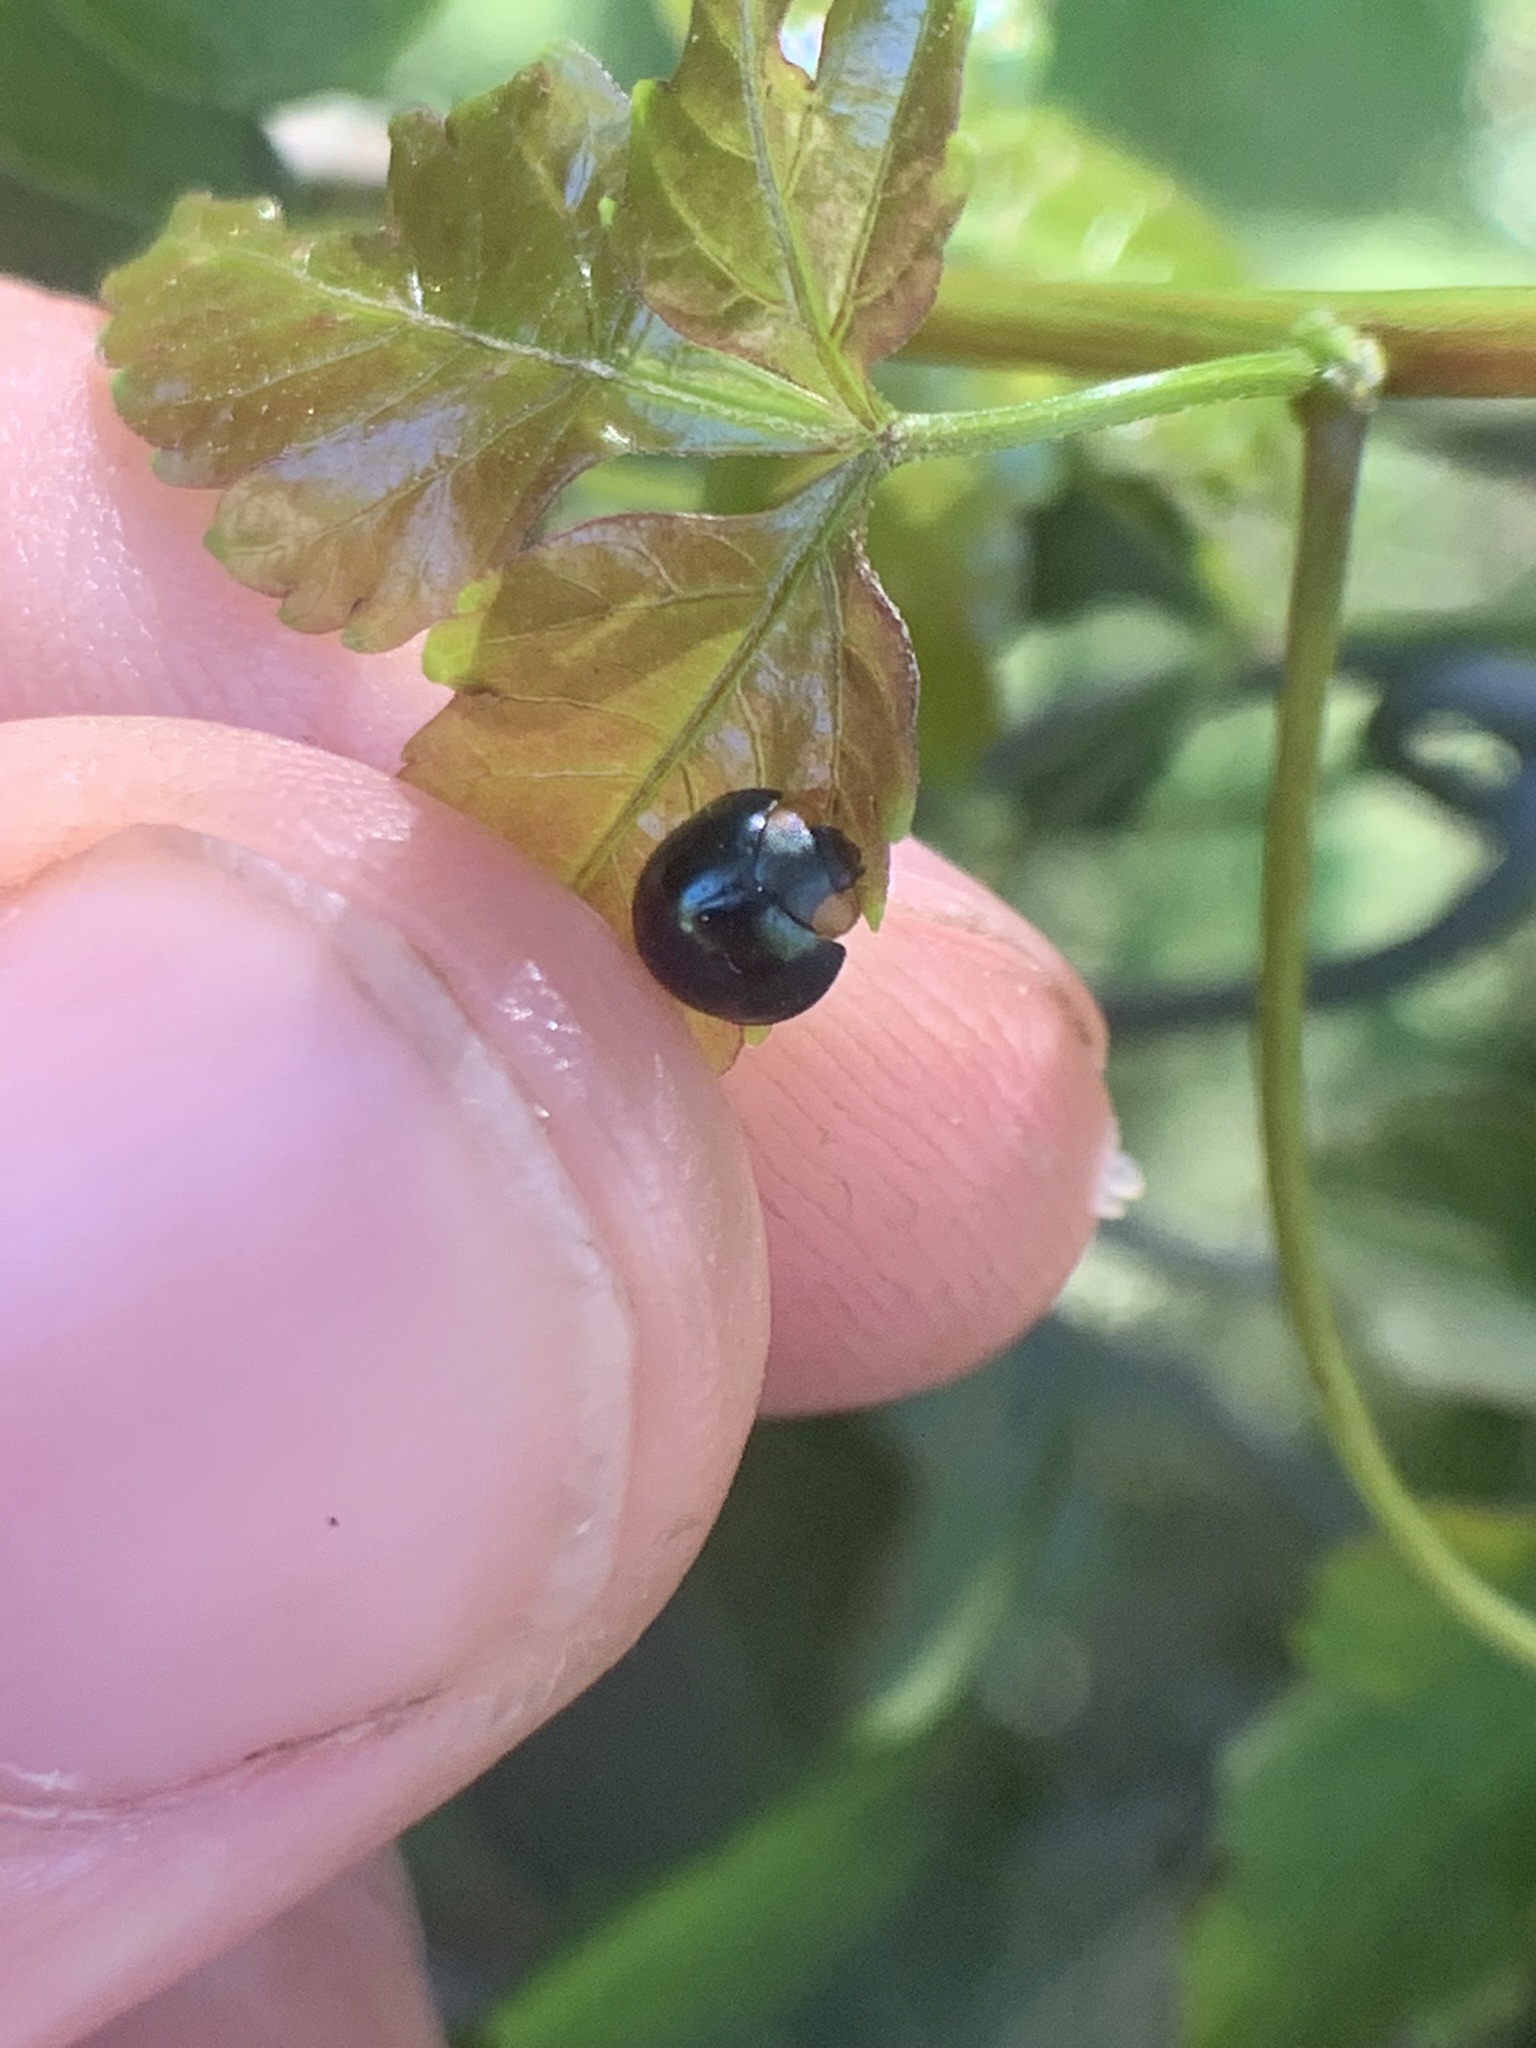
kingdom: Animalia
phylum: Arthropoda
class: Insecta
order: Coleoptera
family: Coccinellidae
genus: Curinus
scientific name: Curinus coeruleus
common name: Ladybird beetle
